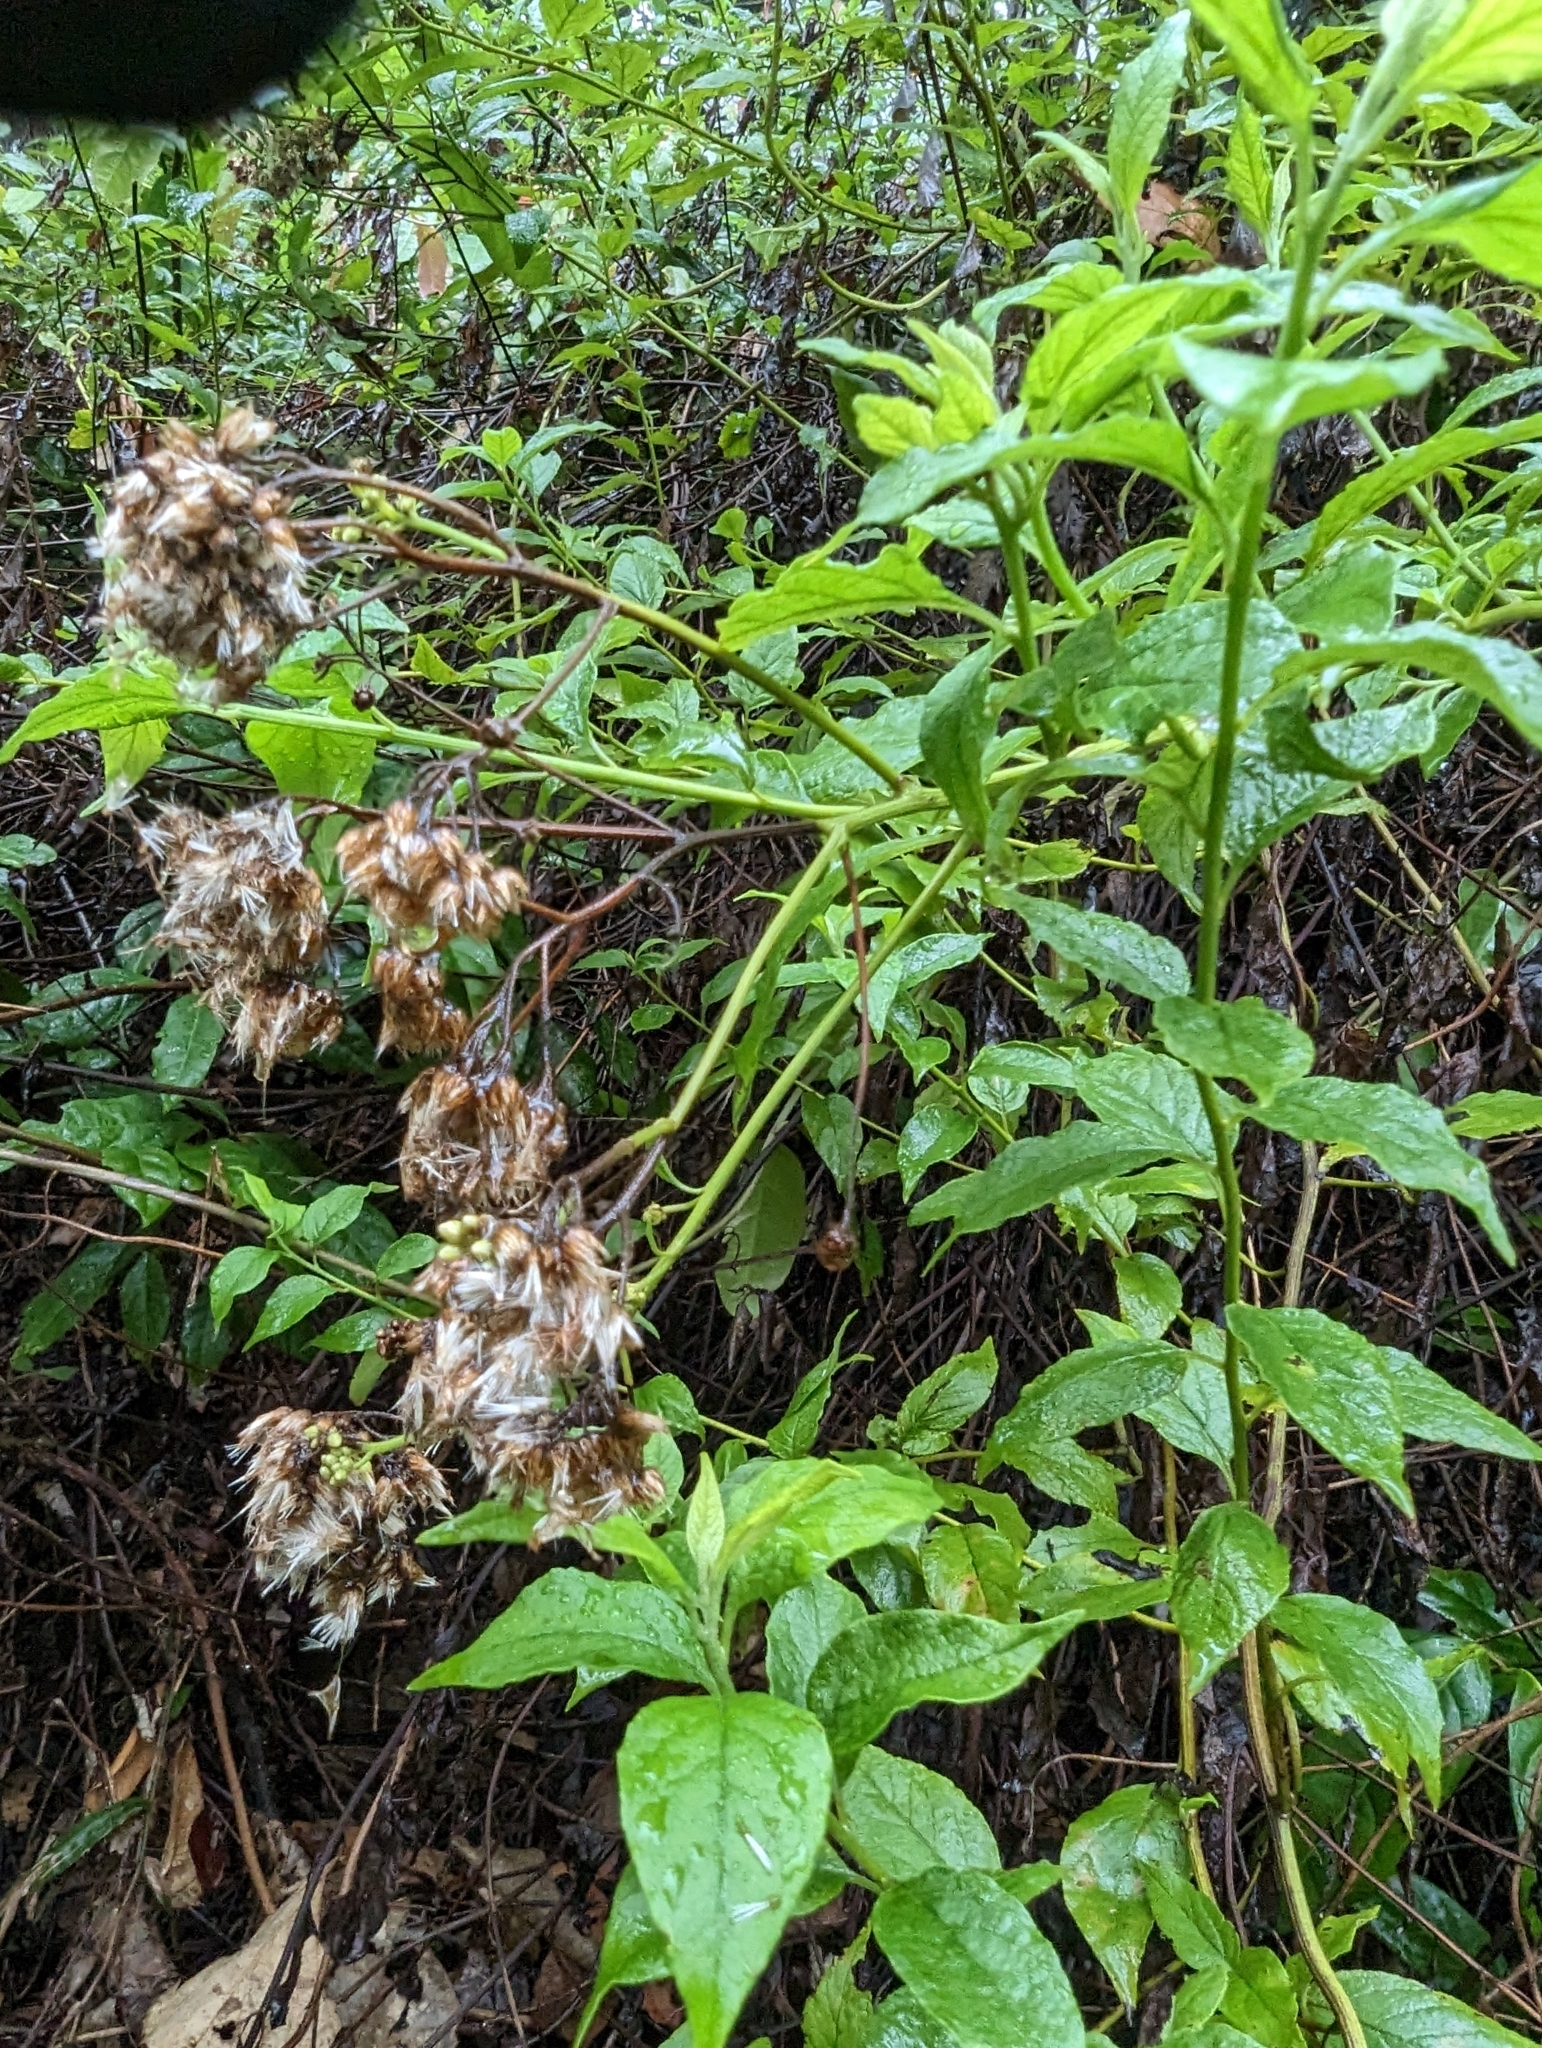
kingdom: Plantae
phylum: Tracheophyta
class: Magnoliopsida
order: Asterales
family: Asteraceae
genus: Microglossa
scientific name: Microglossa pyrifolia
